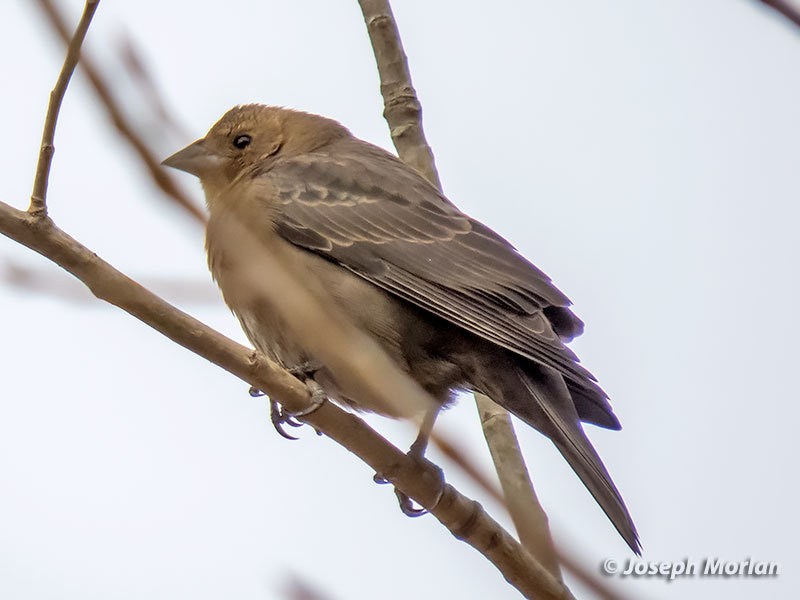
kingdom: Animalia
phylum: Chordata
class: Aves
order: Passeriformes
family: Icteridae
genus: Molothrus
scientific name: Molothrus ater
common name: Brown-headed cowbird
